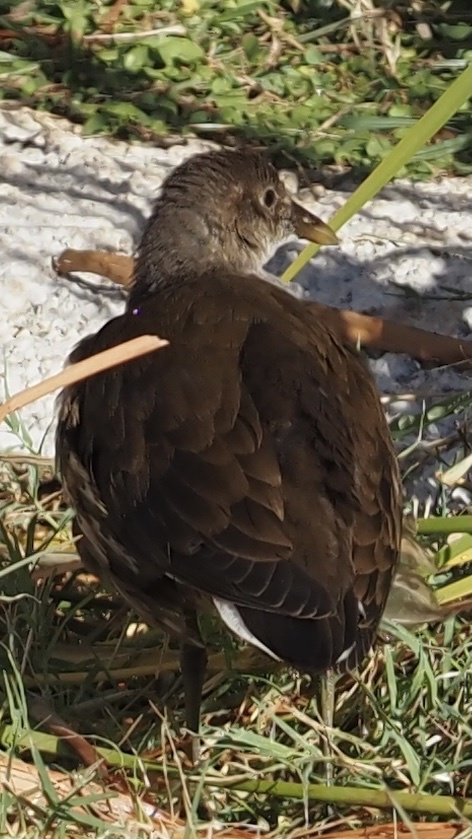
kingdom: Animalia
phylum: Chordata
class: Aves
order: Gruiformes
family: Rallidae
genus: Gallinula
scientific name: Gallinula chloropus
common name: Common moorhen
